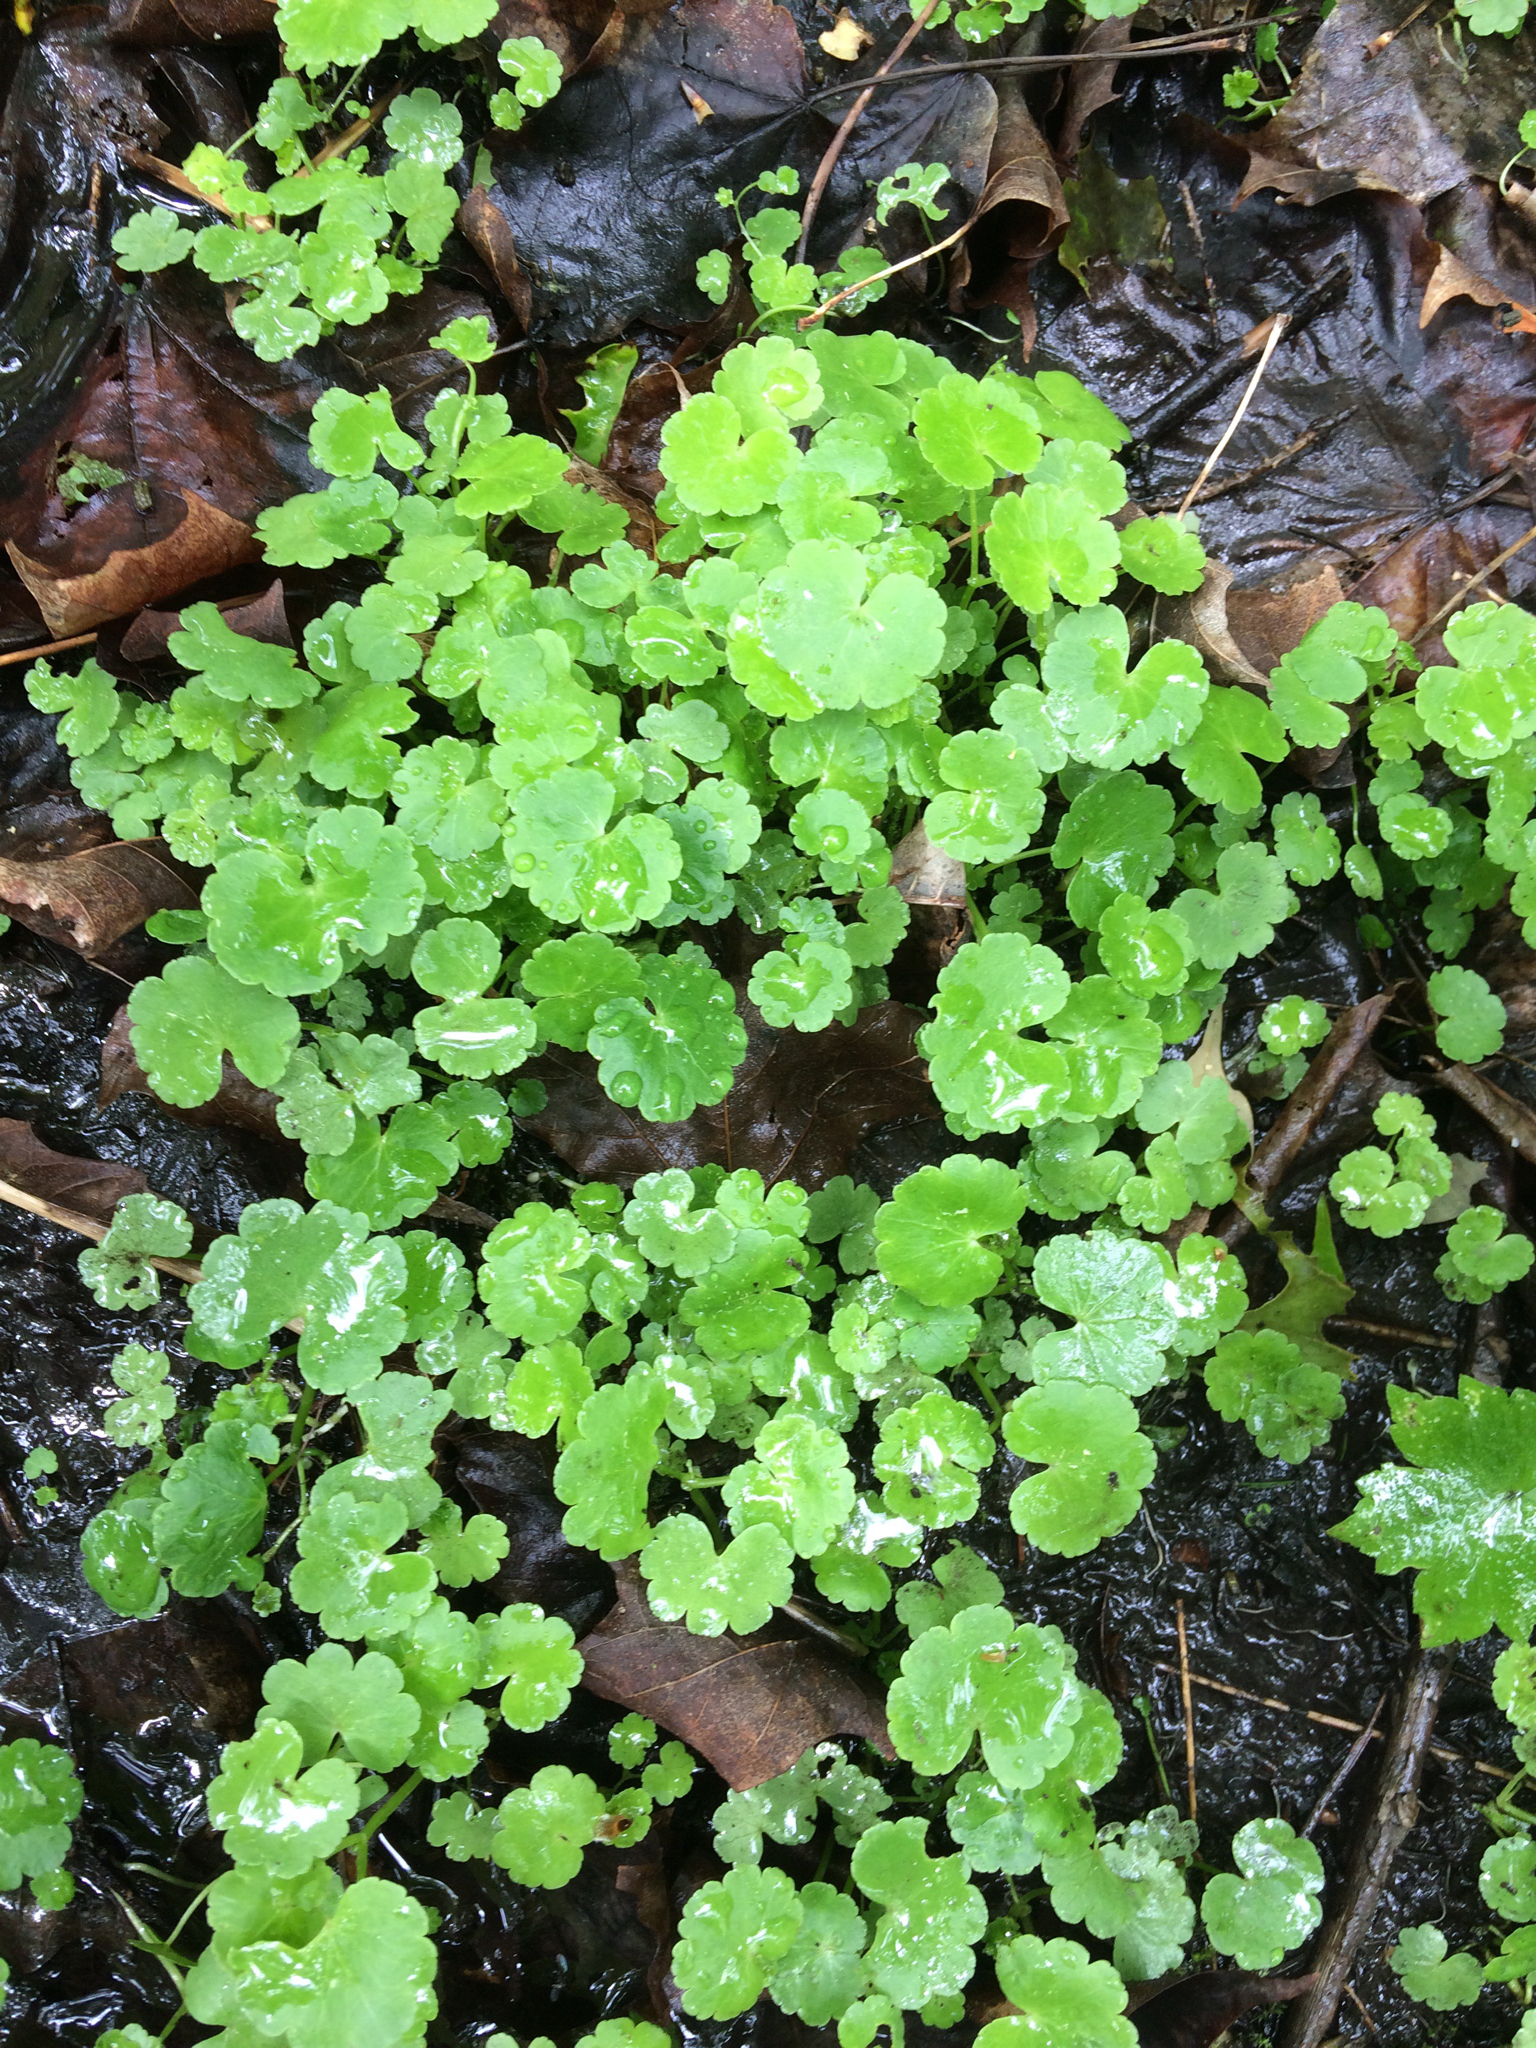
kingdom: Plantae
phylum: Tracheophyta
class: Magnoliopsida
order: Apiales
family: Araliaceae
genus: Hydrocotyle
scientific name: Hydrocotyle americana
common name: American water-pennywort
